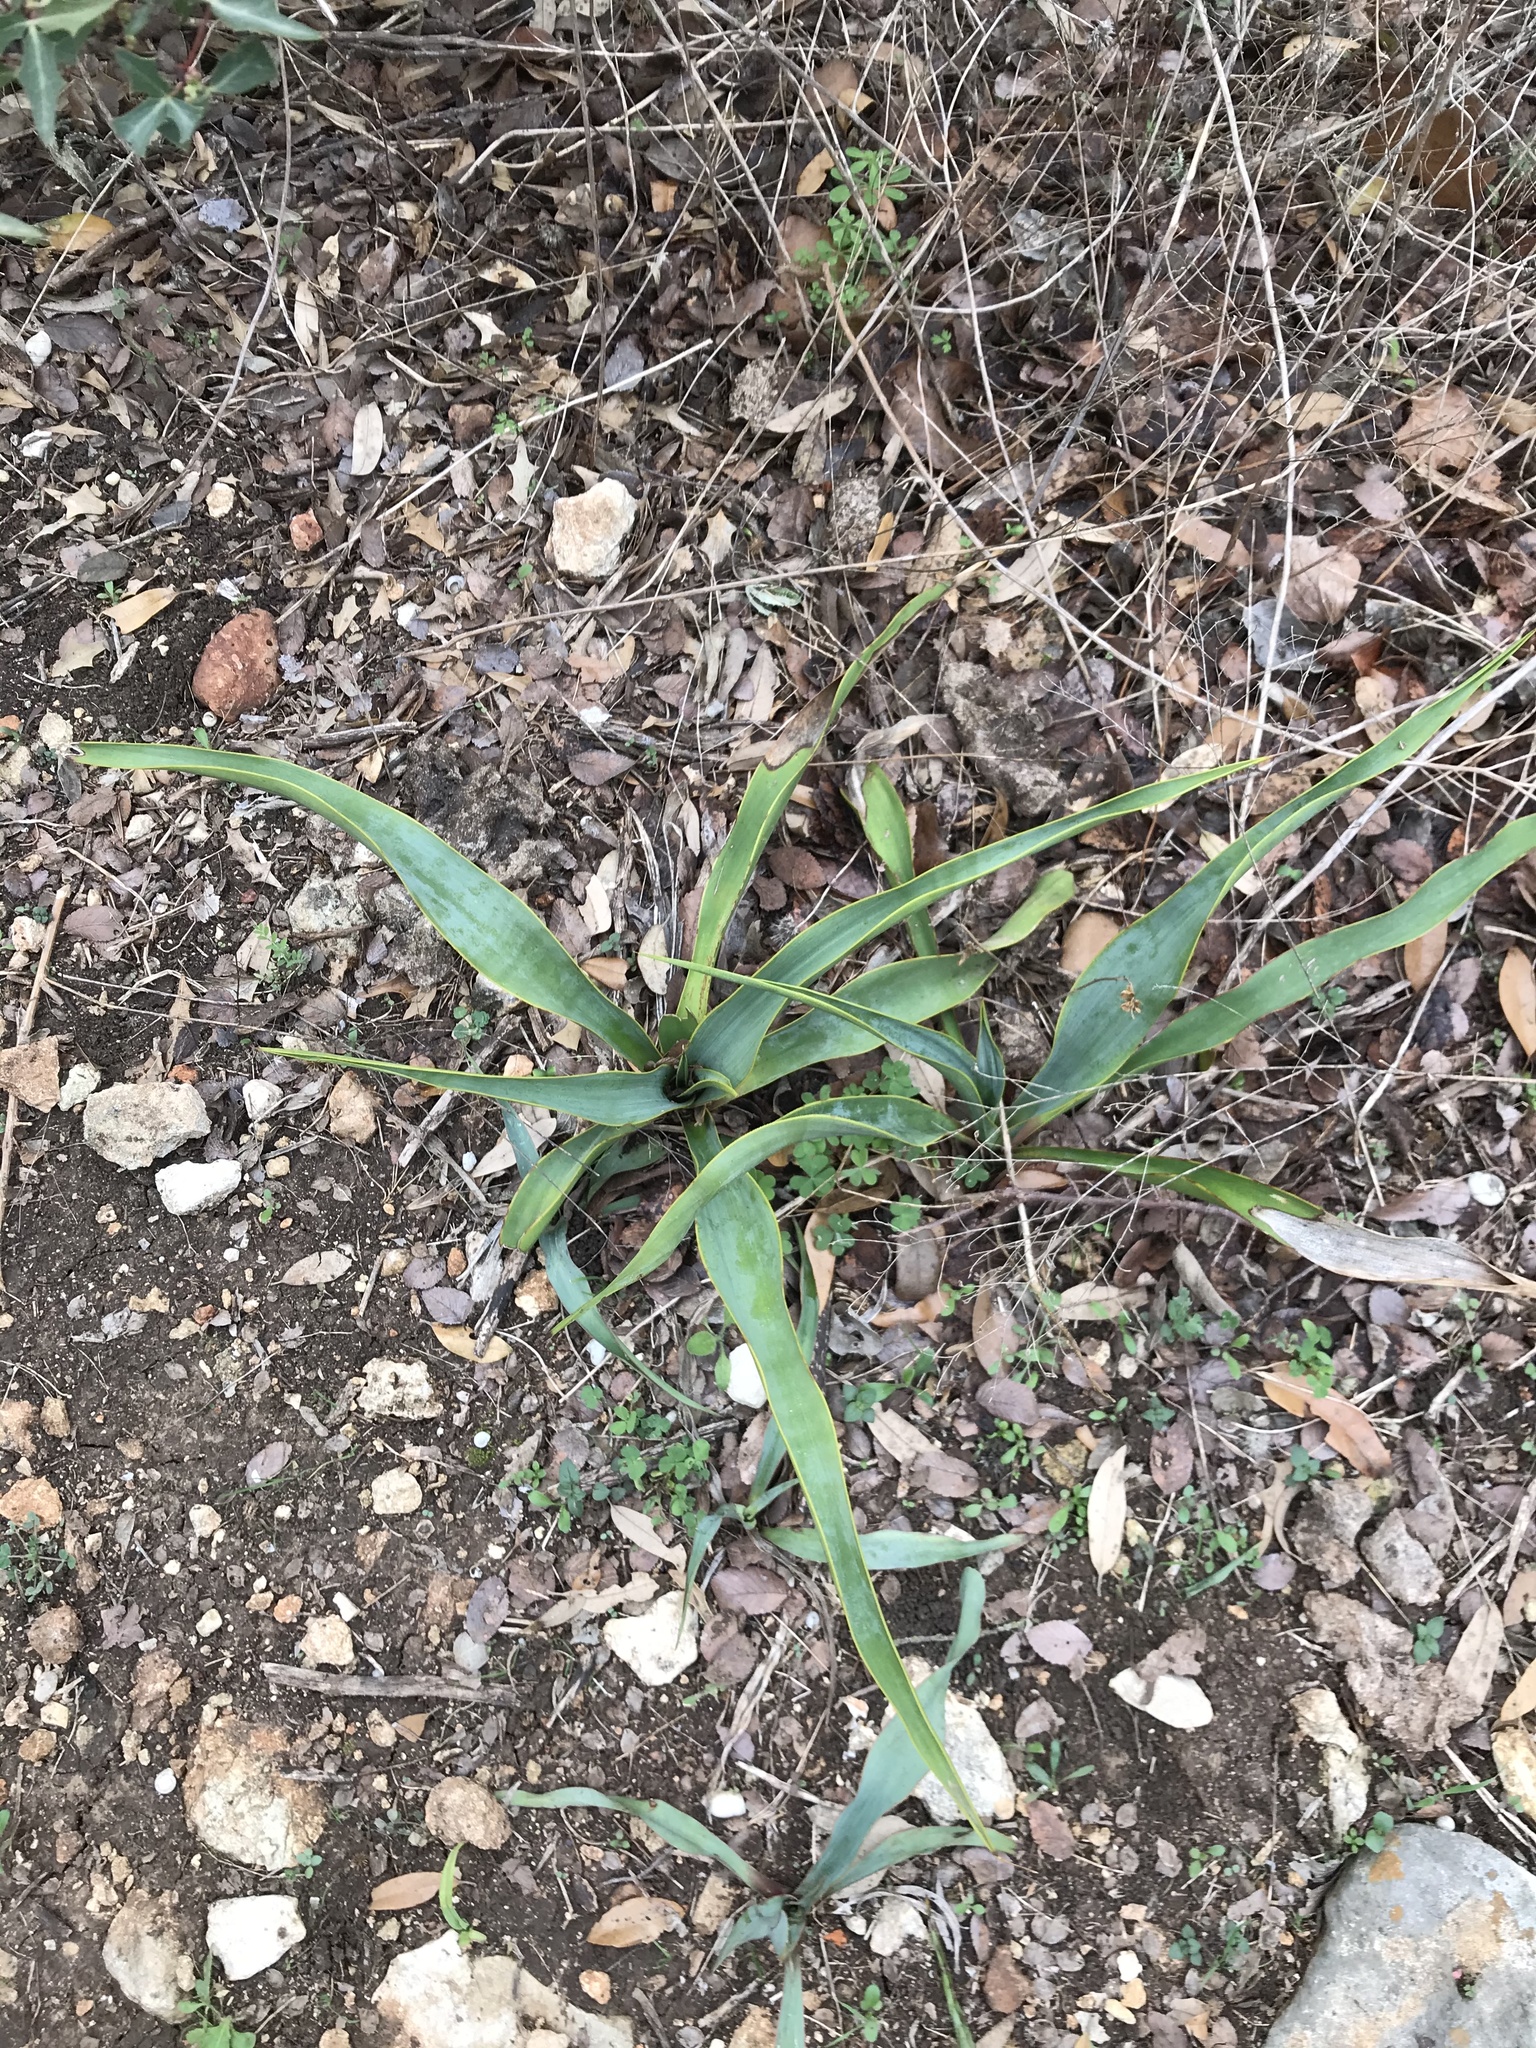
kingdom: Plantae
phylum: Tracheophyta
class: Liliopsida
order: Asparagales
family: Asparagaceae
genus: Yucca
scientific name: Yucca rupicola
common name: Twisted-leaf spanish-dagger
